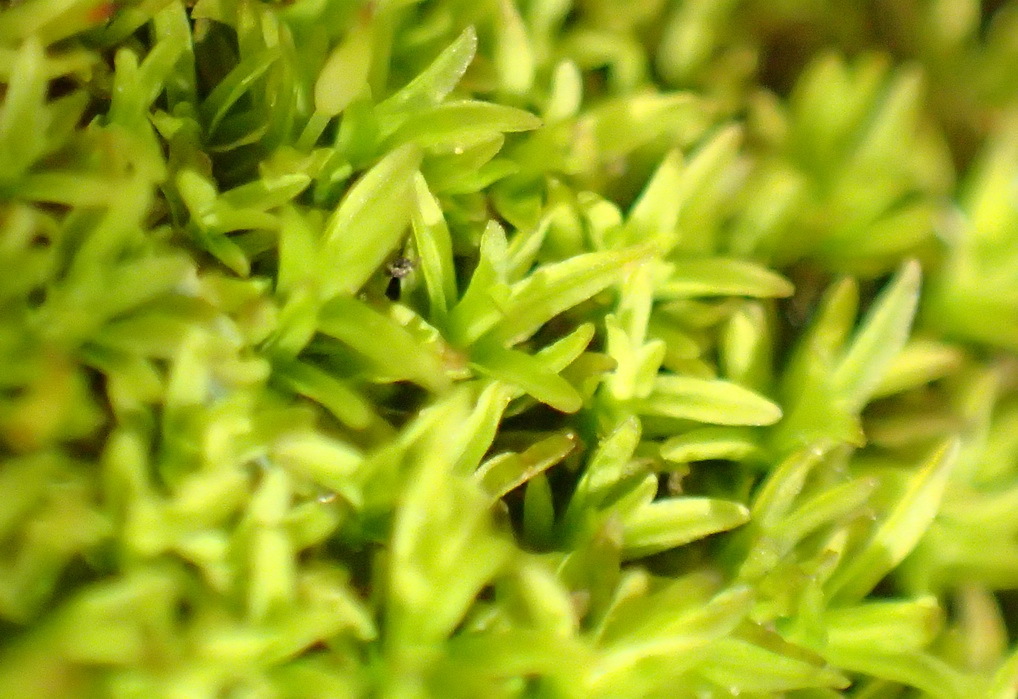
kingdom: Plantae
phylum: Bryophyta
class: Bryopsida
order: Dicranales
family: Rhabdoweisiaceae
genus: Cynodontium
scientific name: Cynodontium erosum
